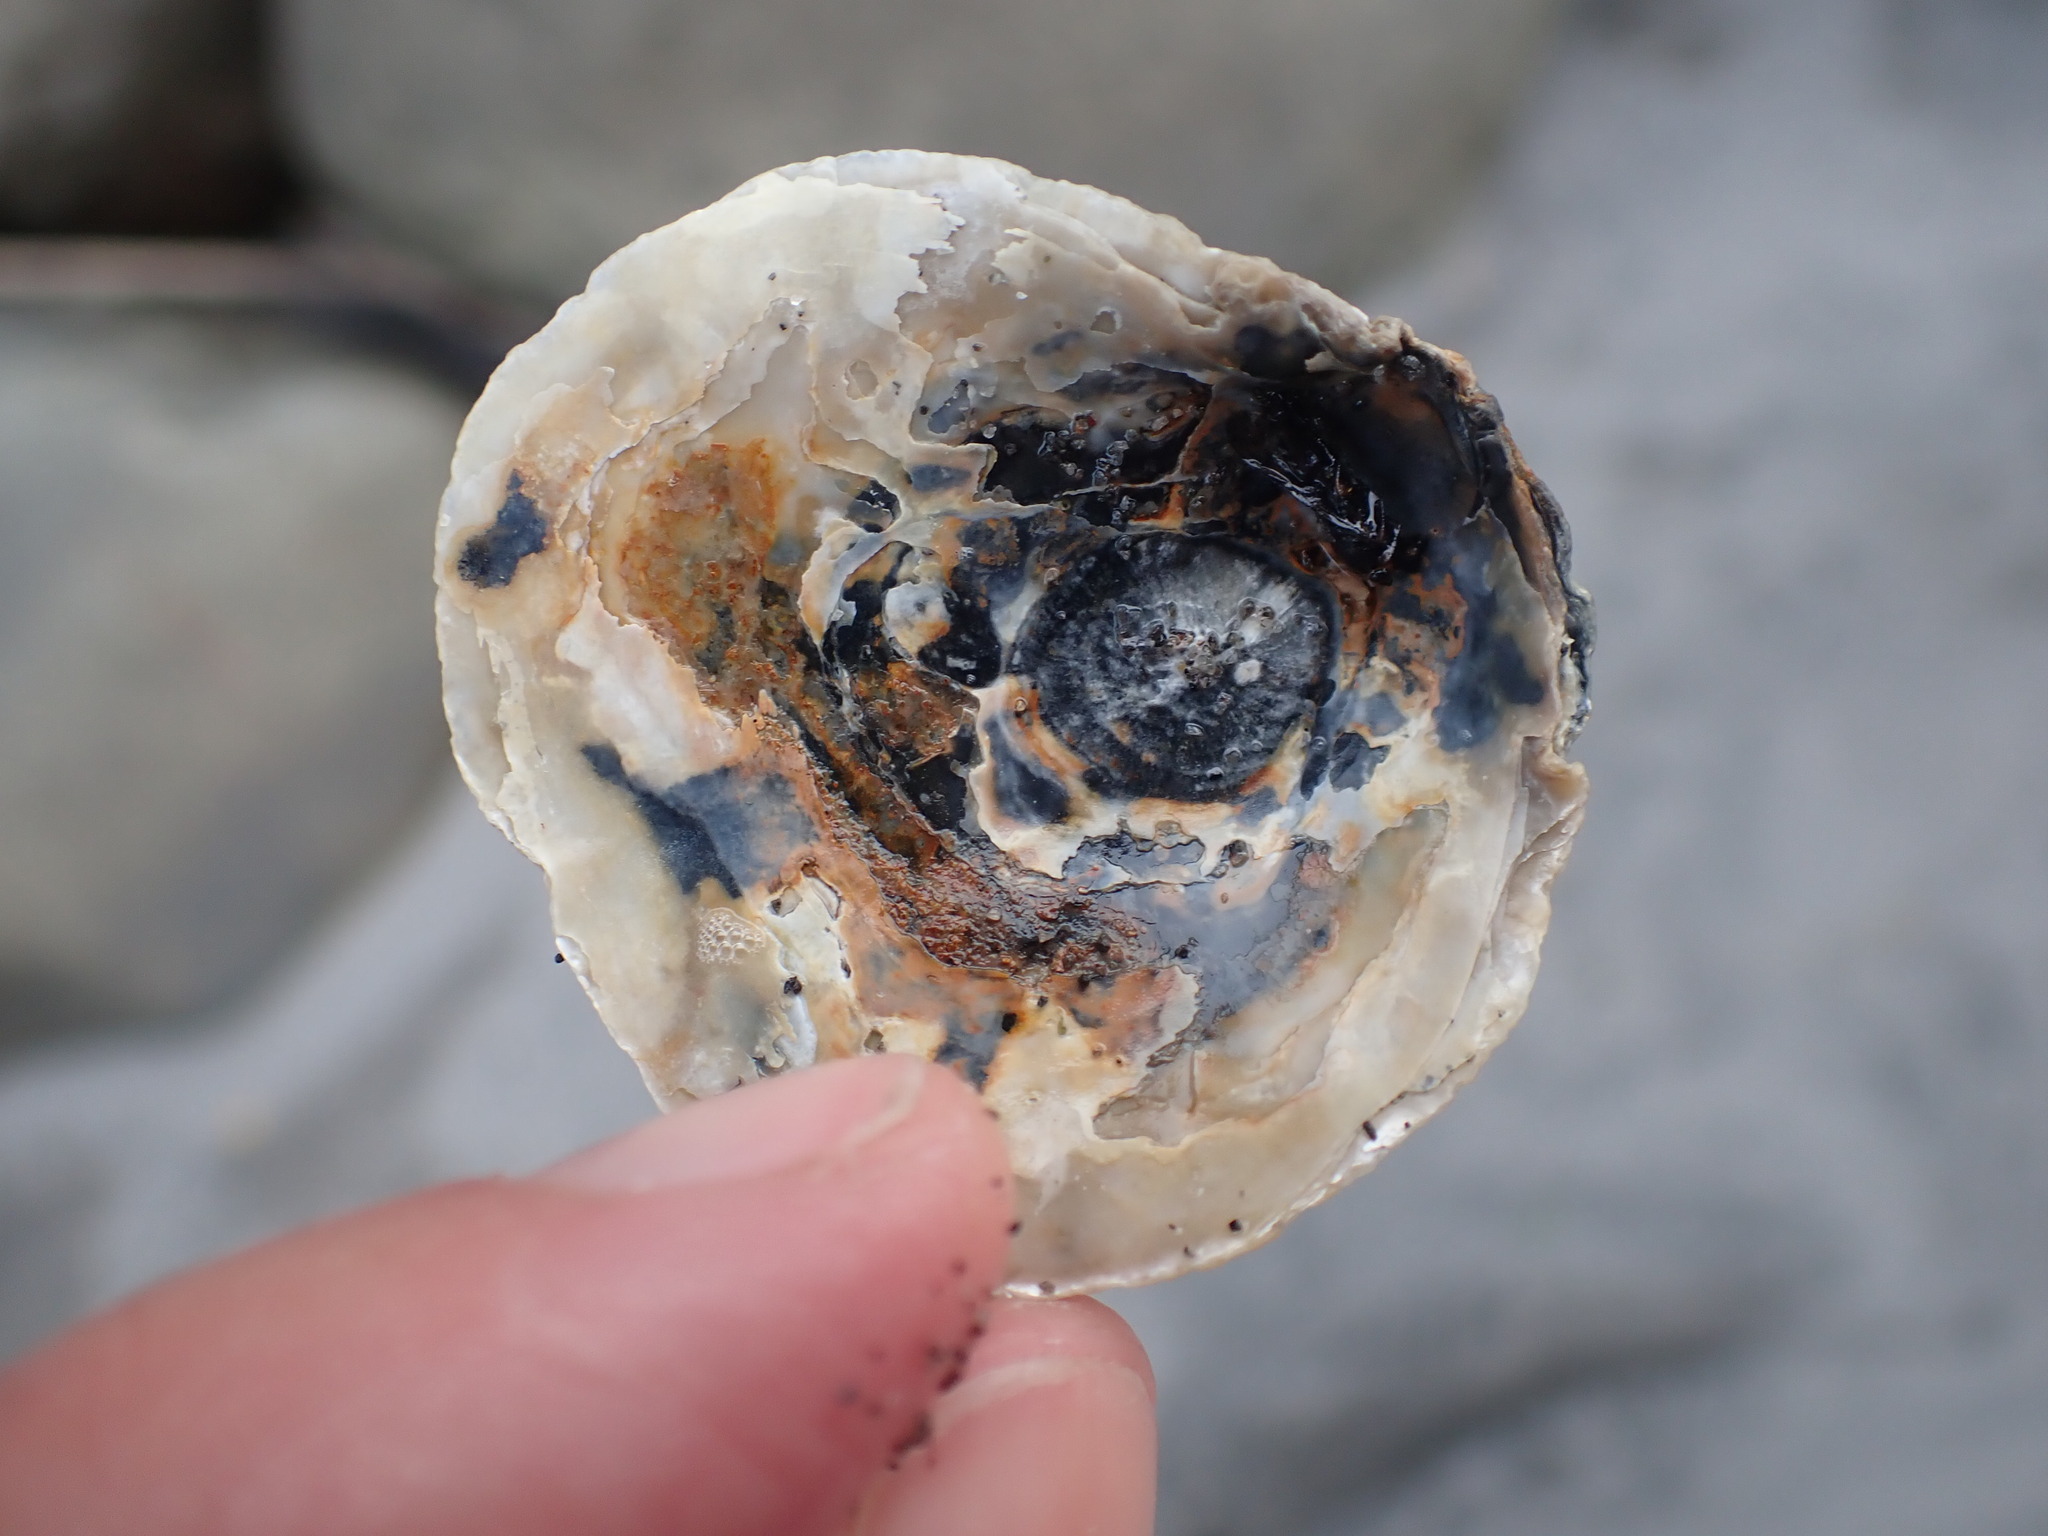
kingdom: Animalia
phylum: Mollusca
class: Bivalvia
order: Ostreida
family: Ostreidae
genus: Ostrea
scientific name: Ostrea chilensis
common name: Chilean oyster
